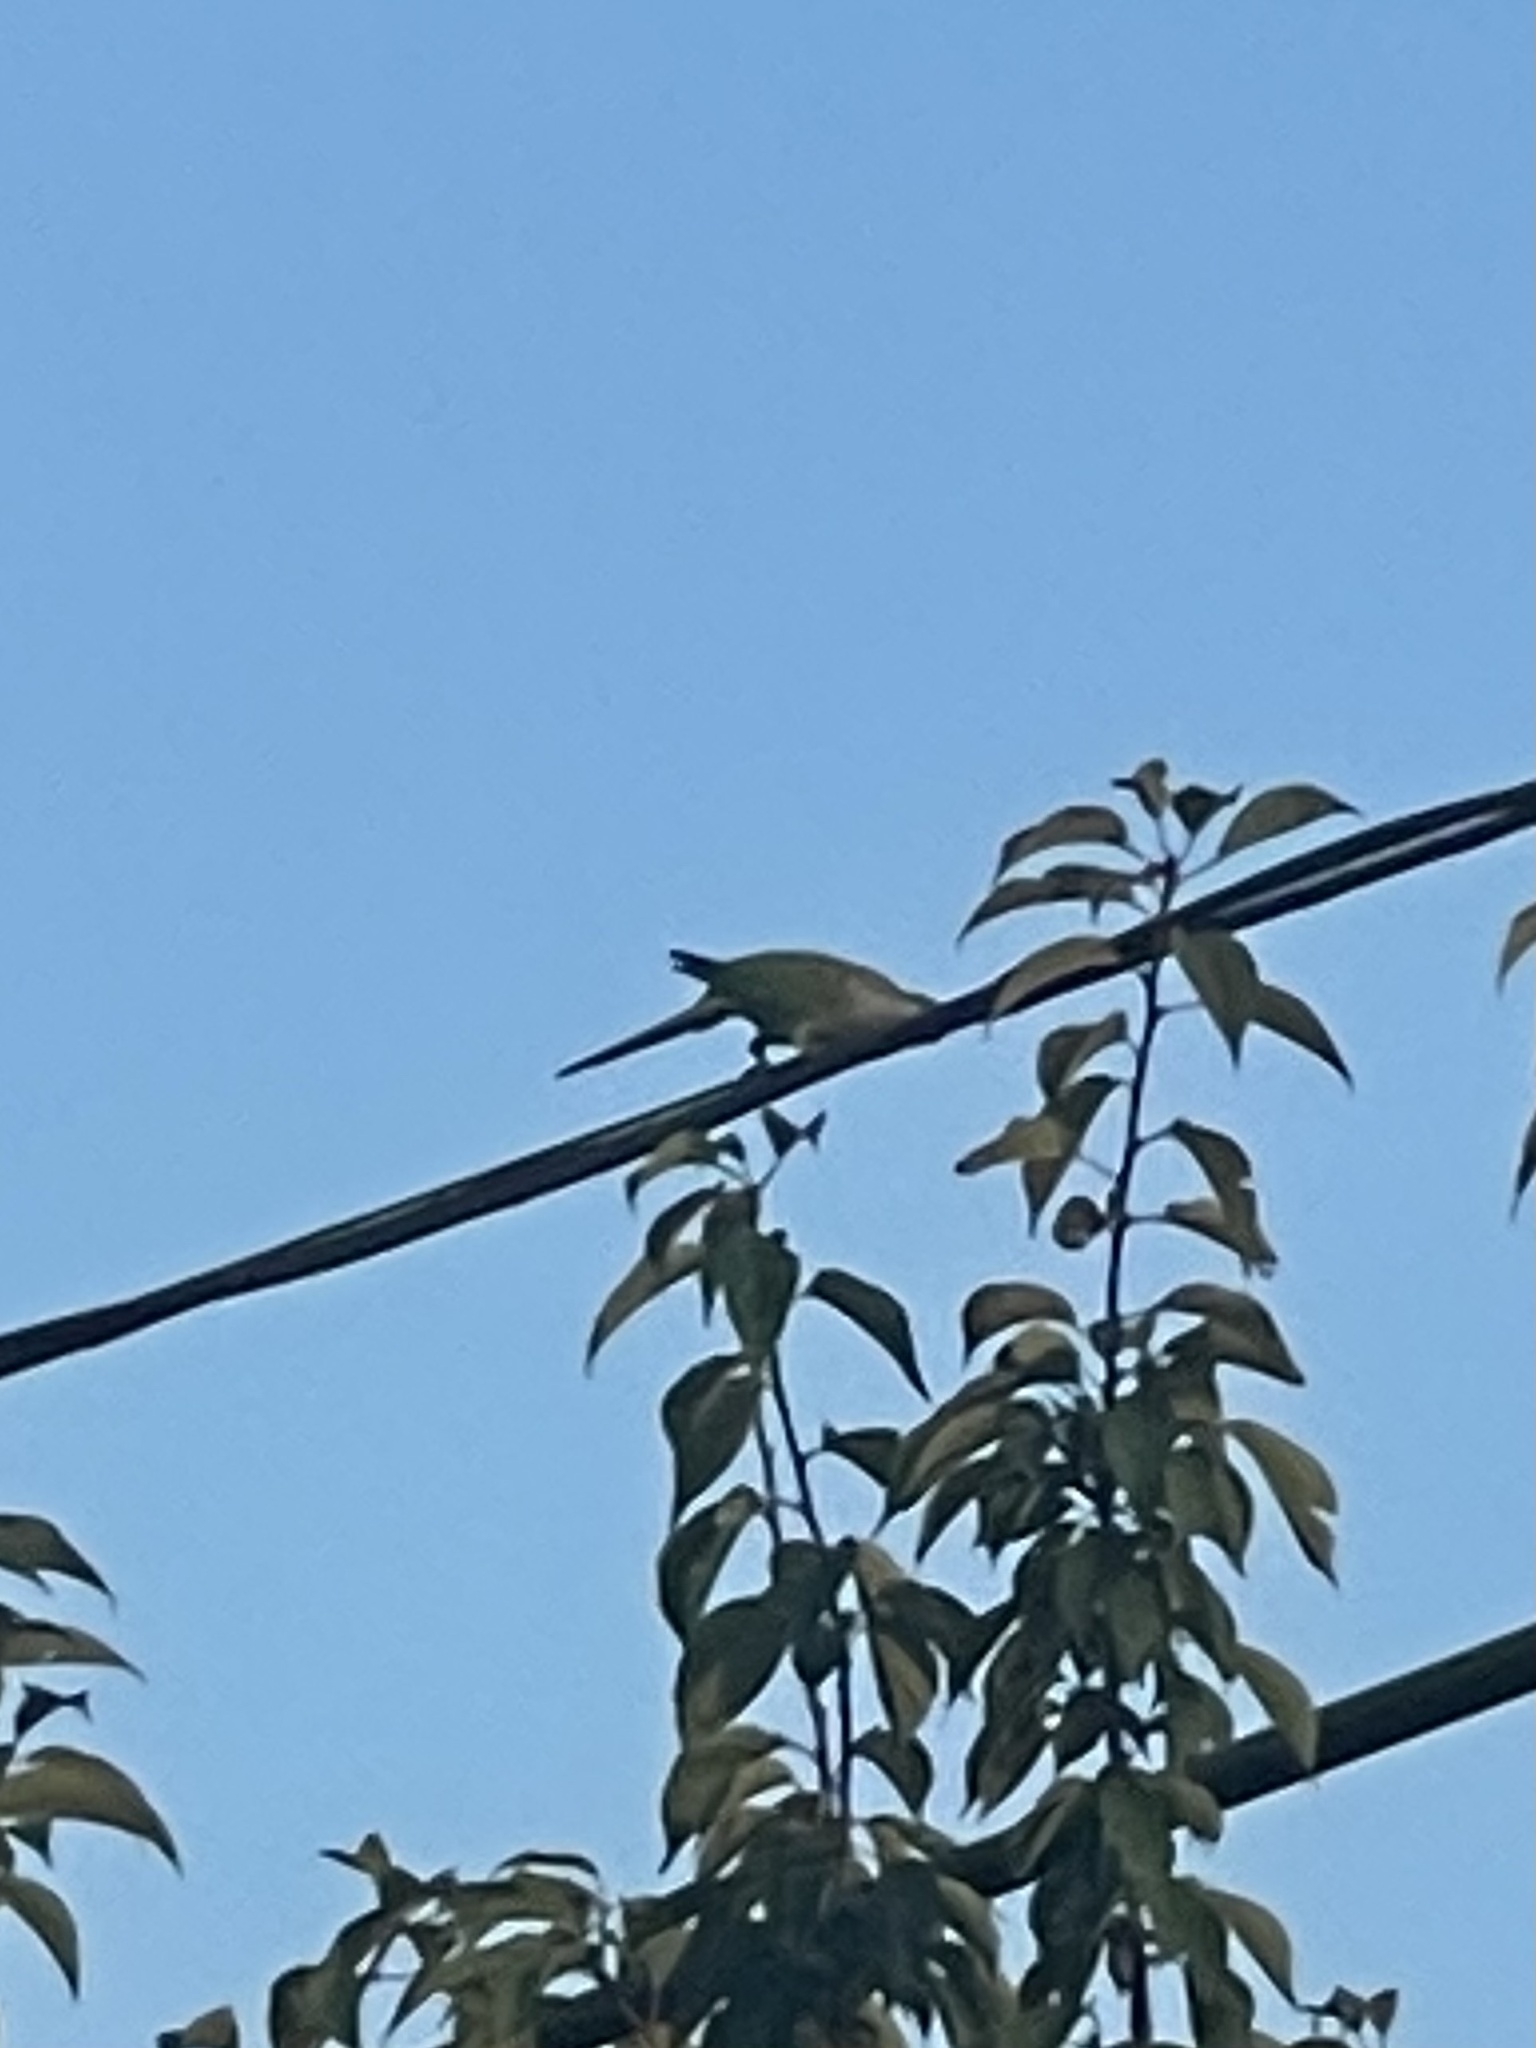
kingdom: Animalia
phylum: Chordata
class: Aves
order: Psittaciformes
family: Psittacidae
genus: Myiopsitta
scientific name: Myiopsitta monachus
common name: Monk parakeet
